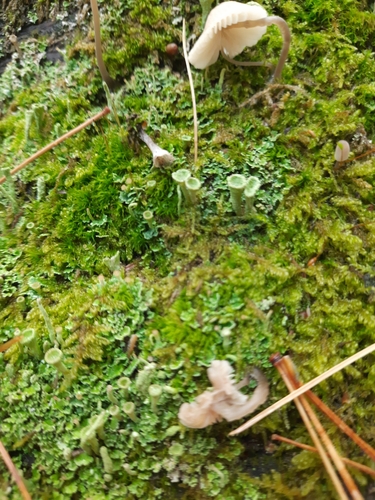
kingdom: Fungi
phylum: Ascomycota
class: Lecanoromycetes
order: Lecanorales
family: Cladoniaceae
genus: Cladonia
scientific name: Cladonia
